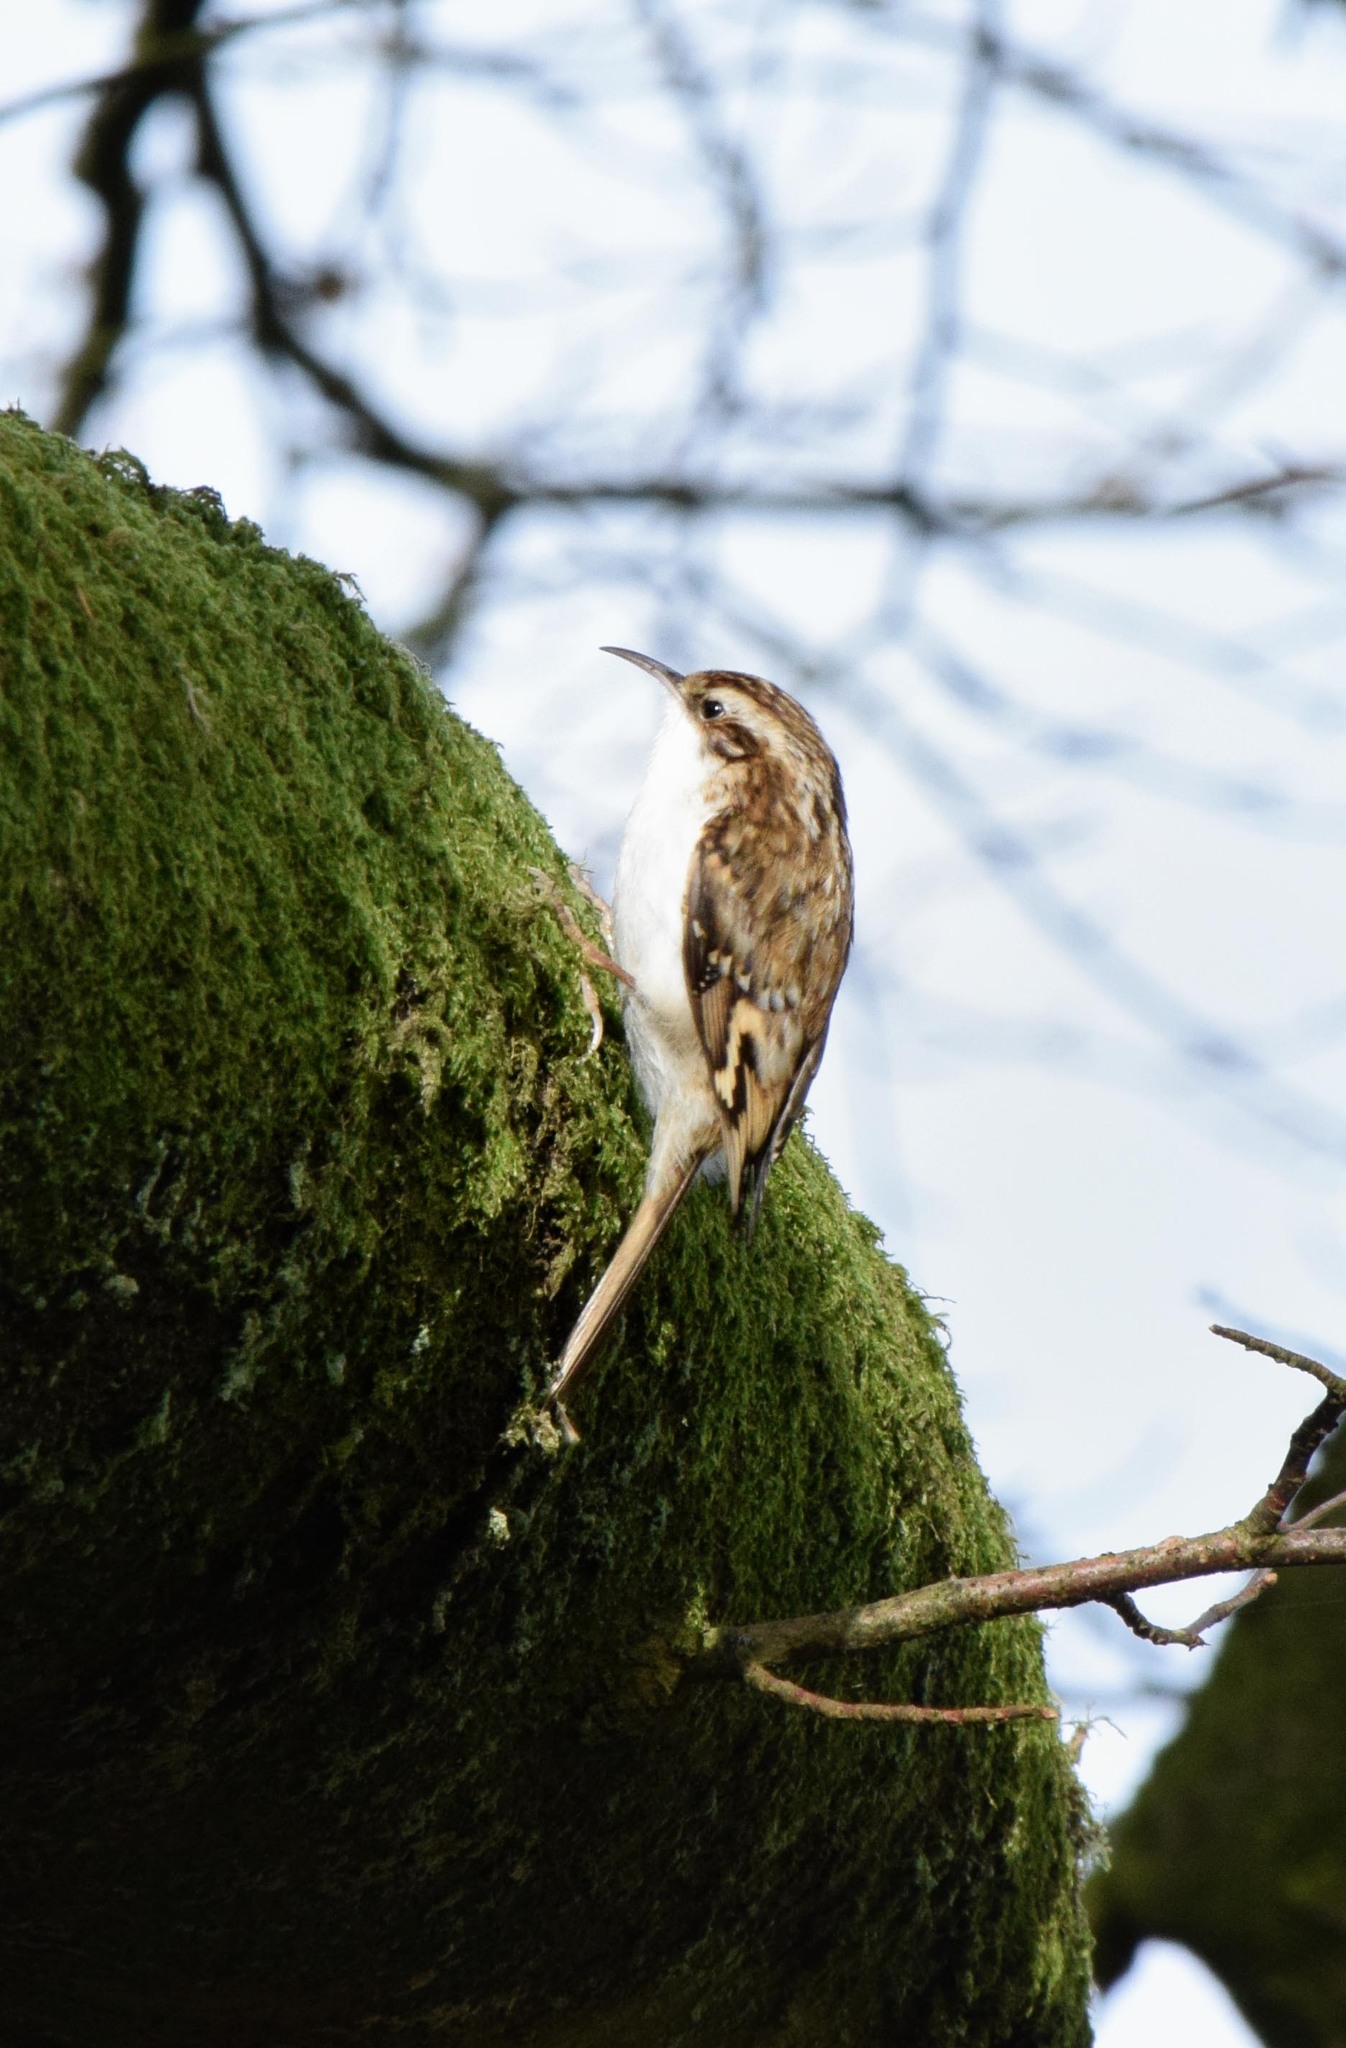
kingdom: Animalia
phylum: Chordata
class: Aves
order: Passeriformes
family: Certhiidae
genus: Certhia
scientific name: Certhia familiaris
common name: Eurasian treecreeper
